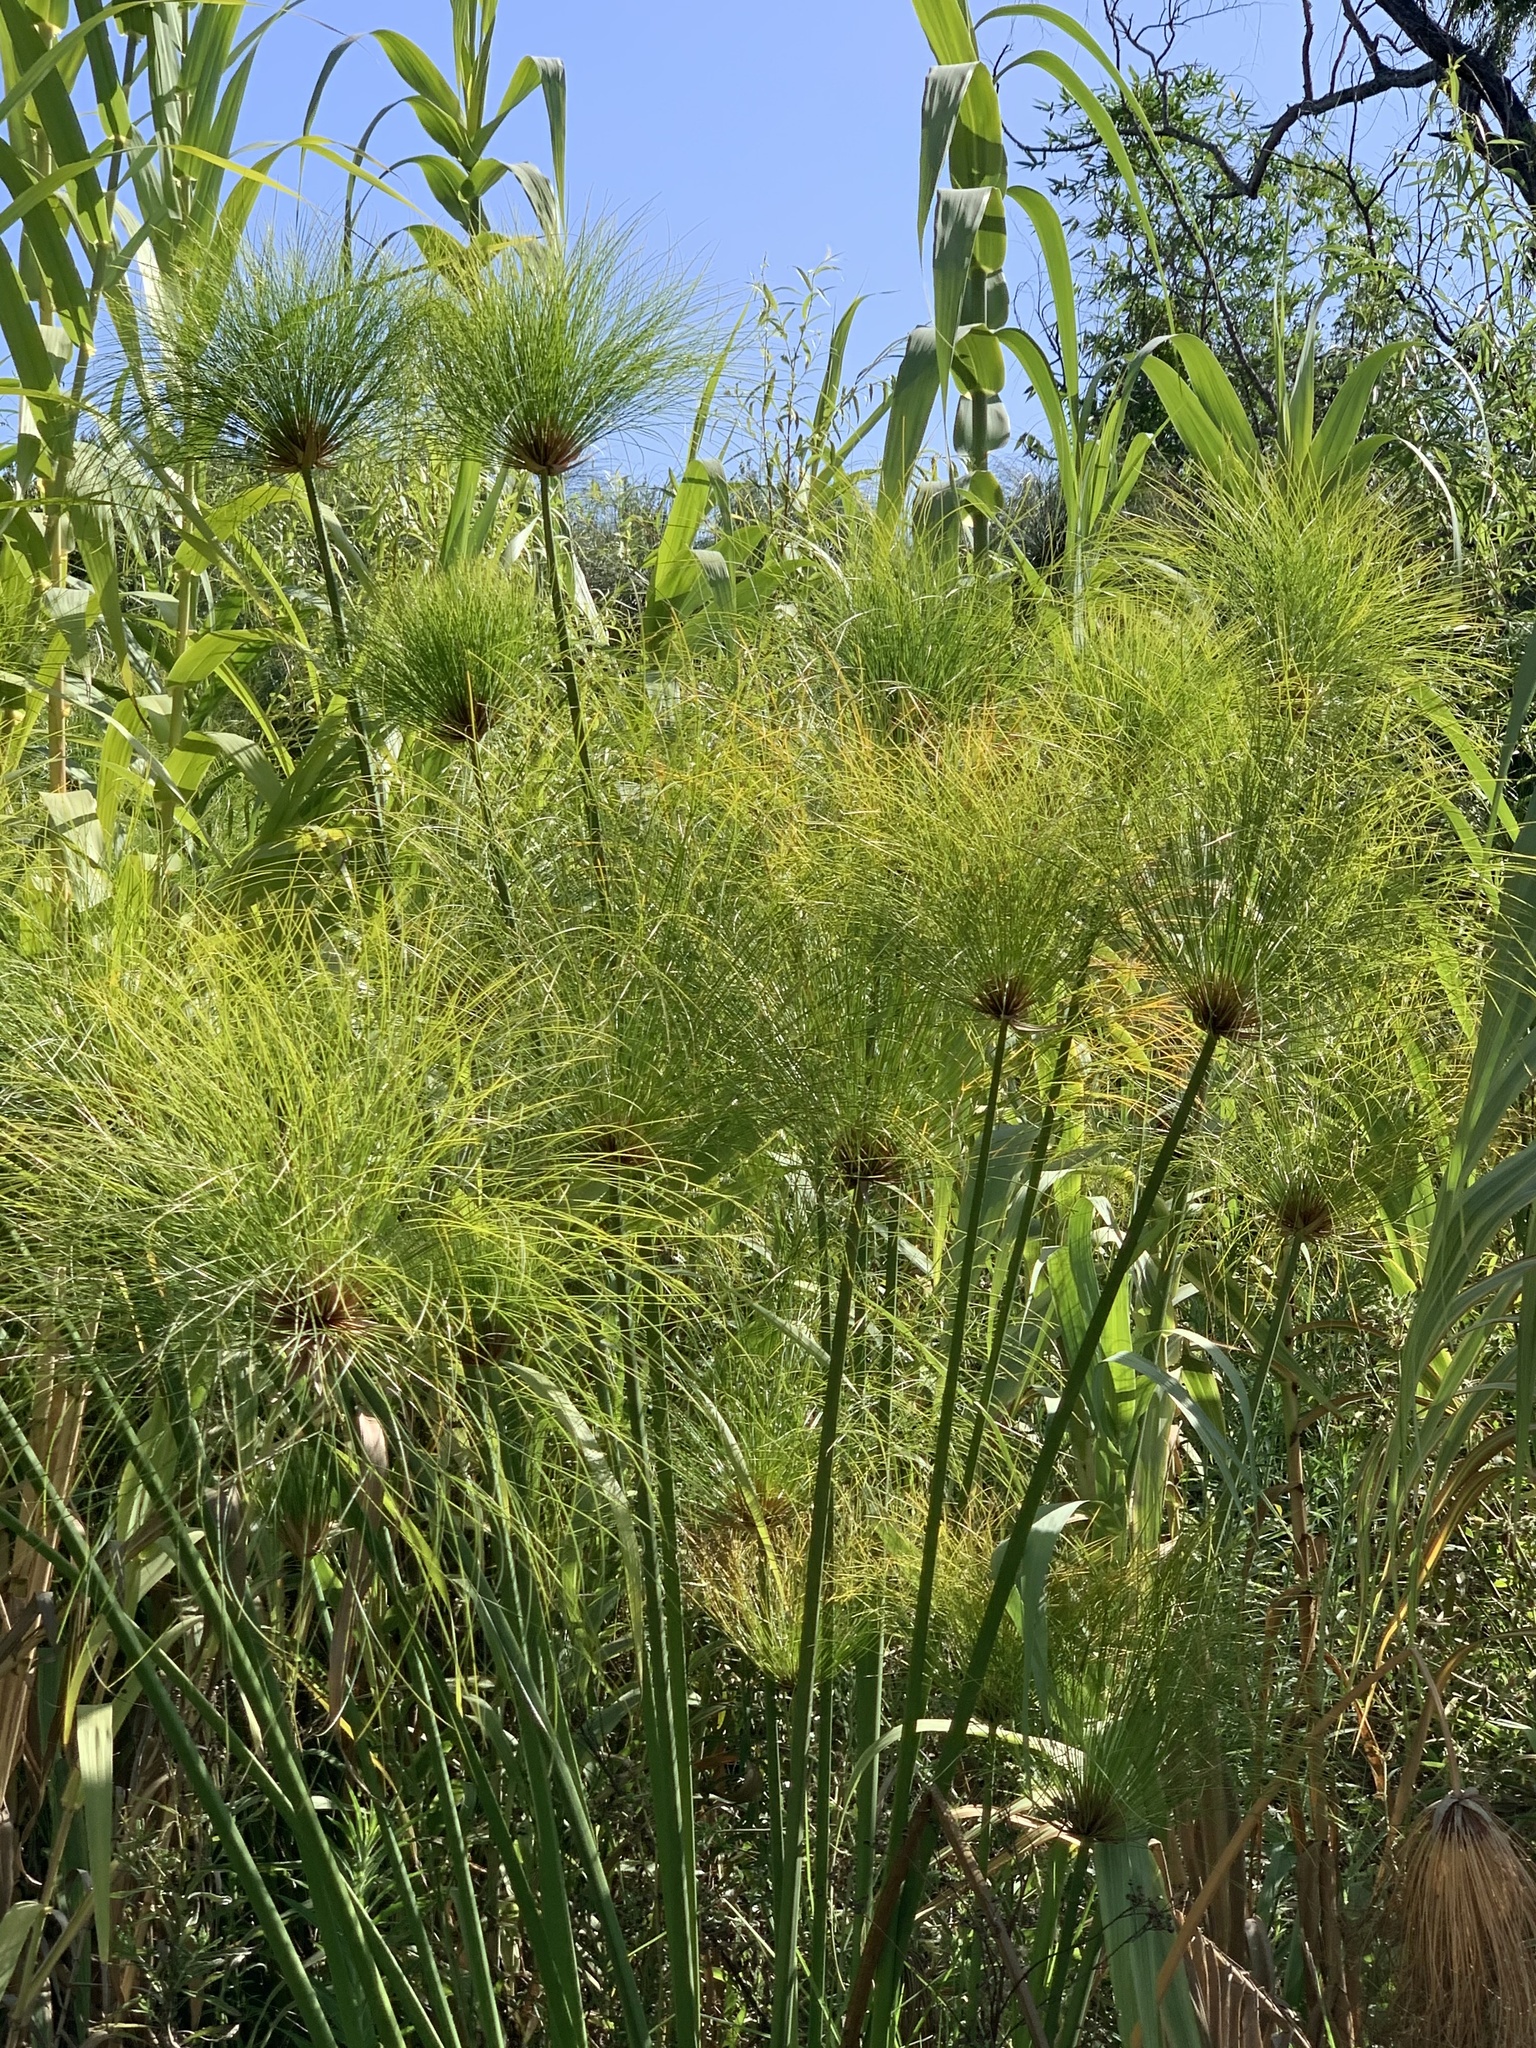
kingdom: Plantae
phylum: Tracheophyta
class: Liliopsida
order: Poales
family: Cyperaceae
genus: Cyperus
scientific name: Cyperus papyrus
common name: Papyrus
